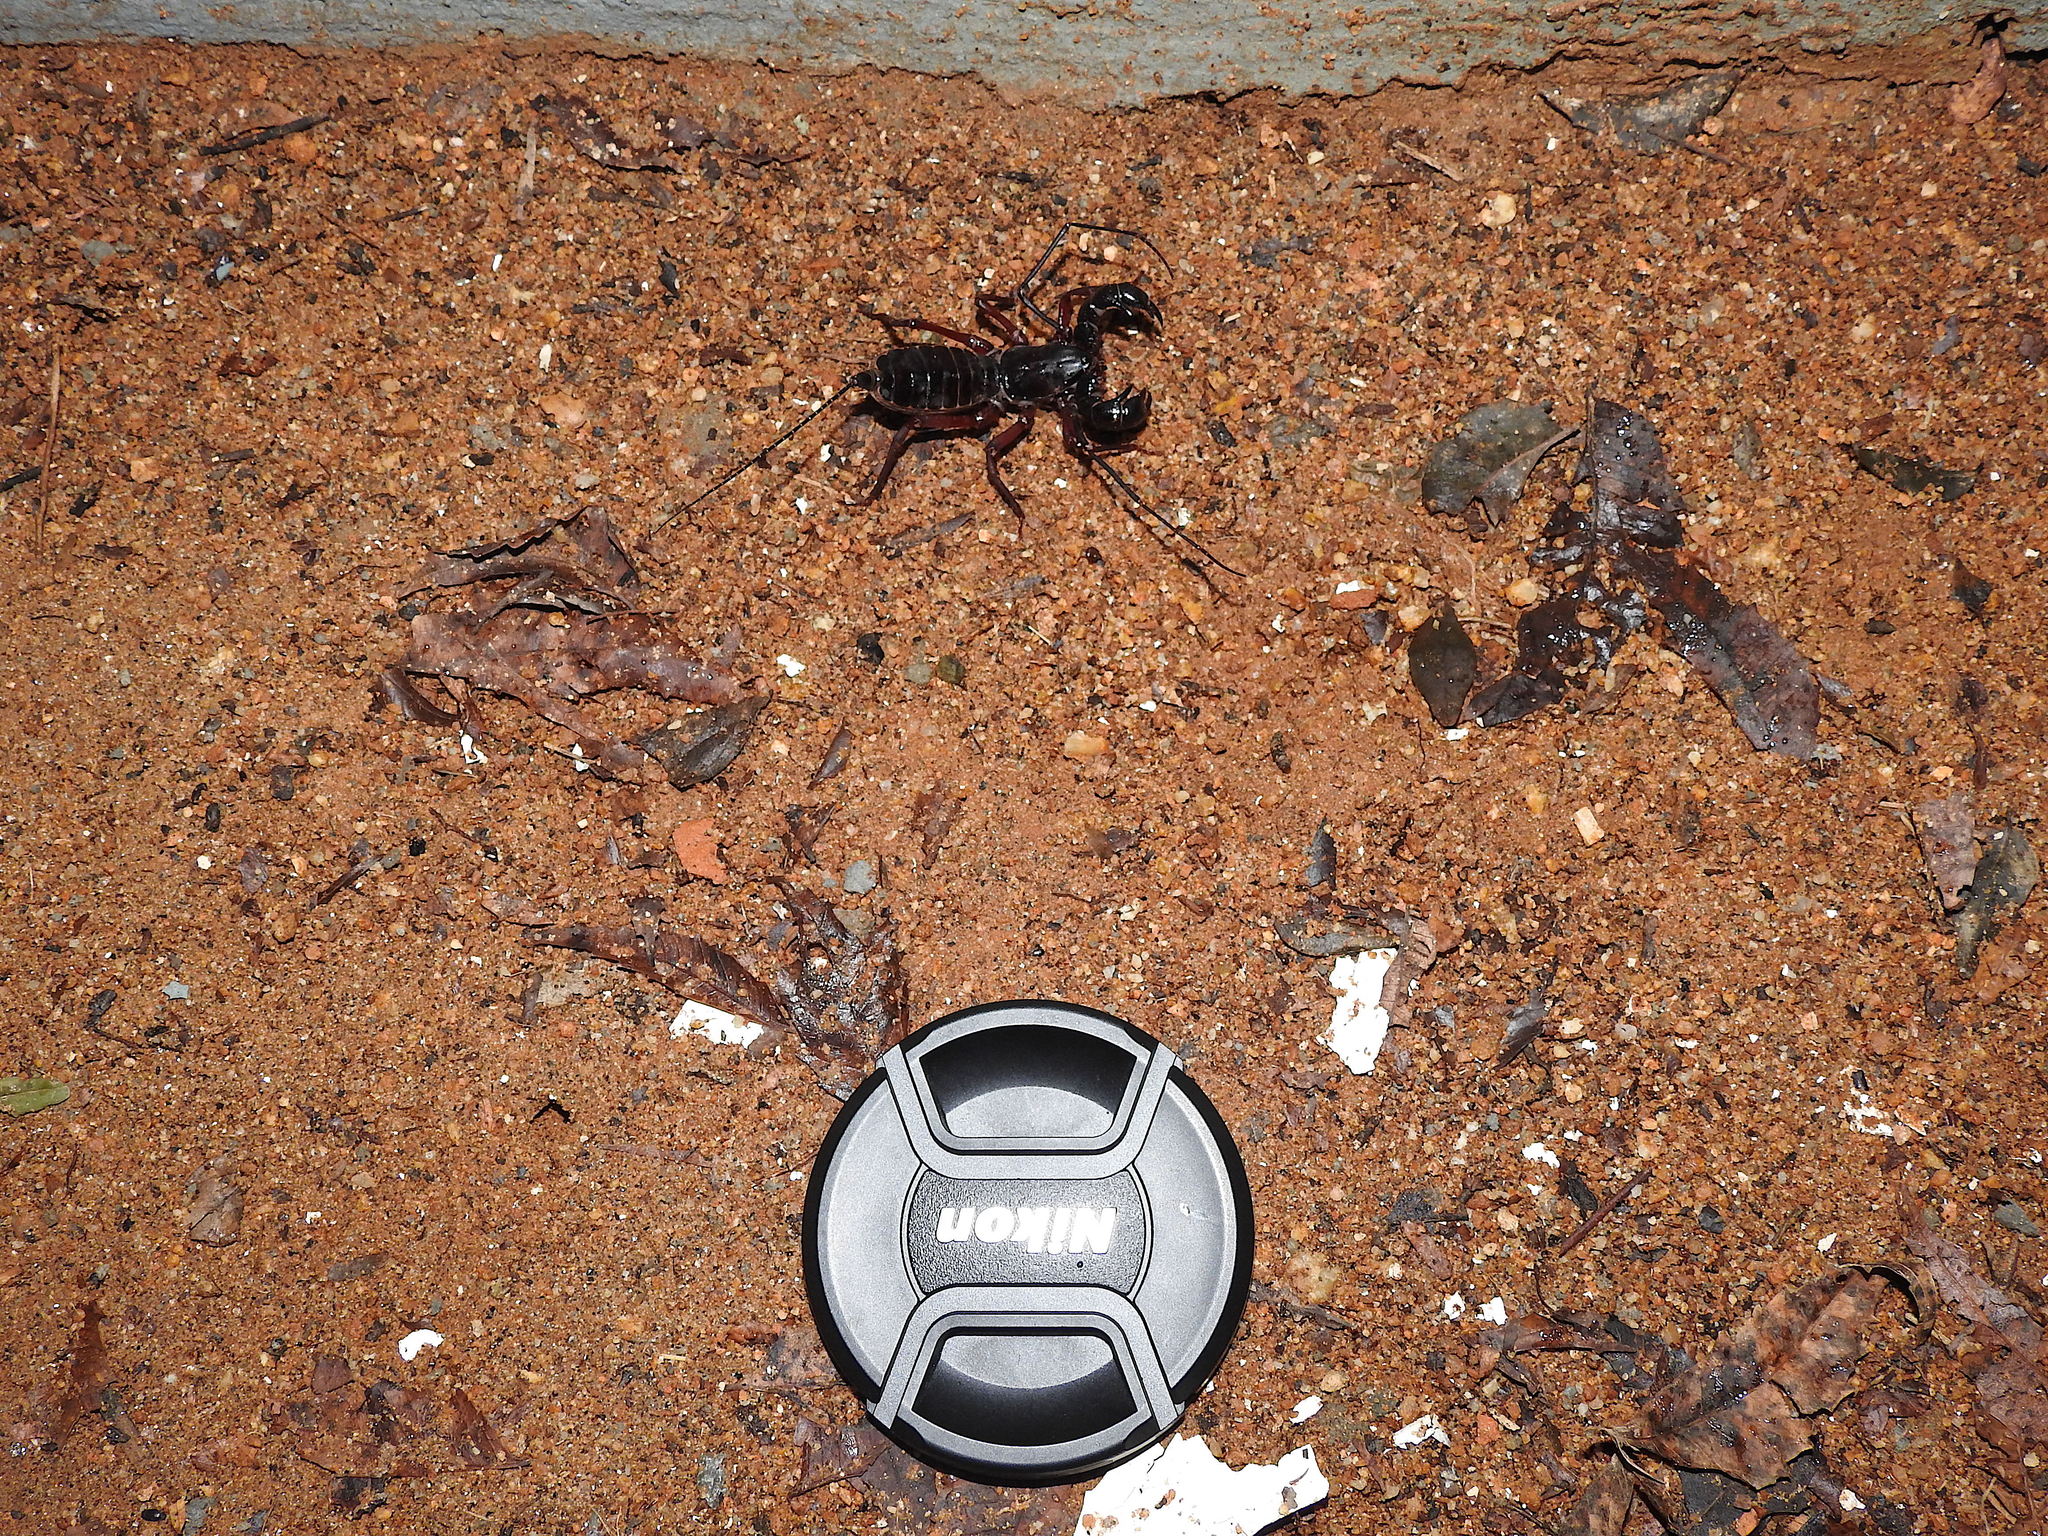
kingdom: Animalia
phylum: Arthropoda
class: Arachnida
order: Uropygi
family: Thelyphonidae
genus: Thelyphonus
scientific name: Thelyphonus sepiaris
